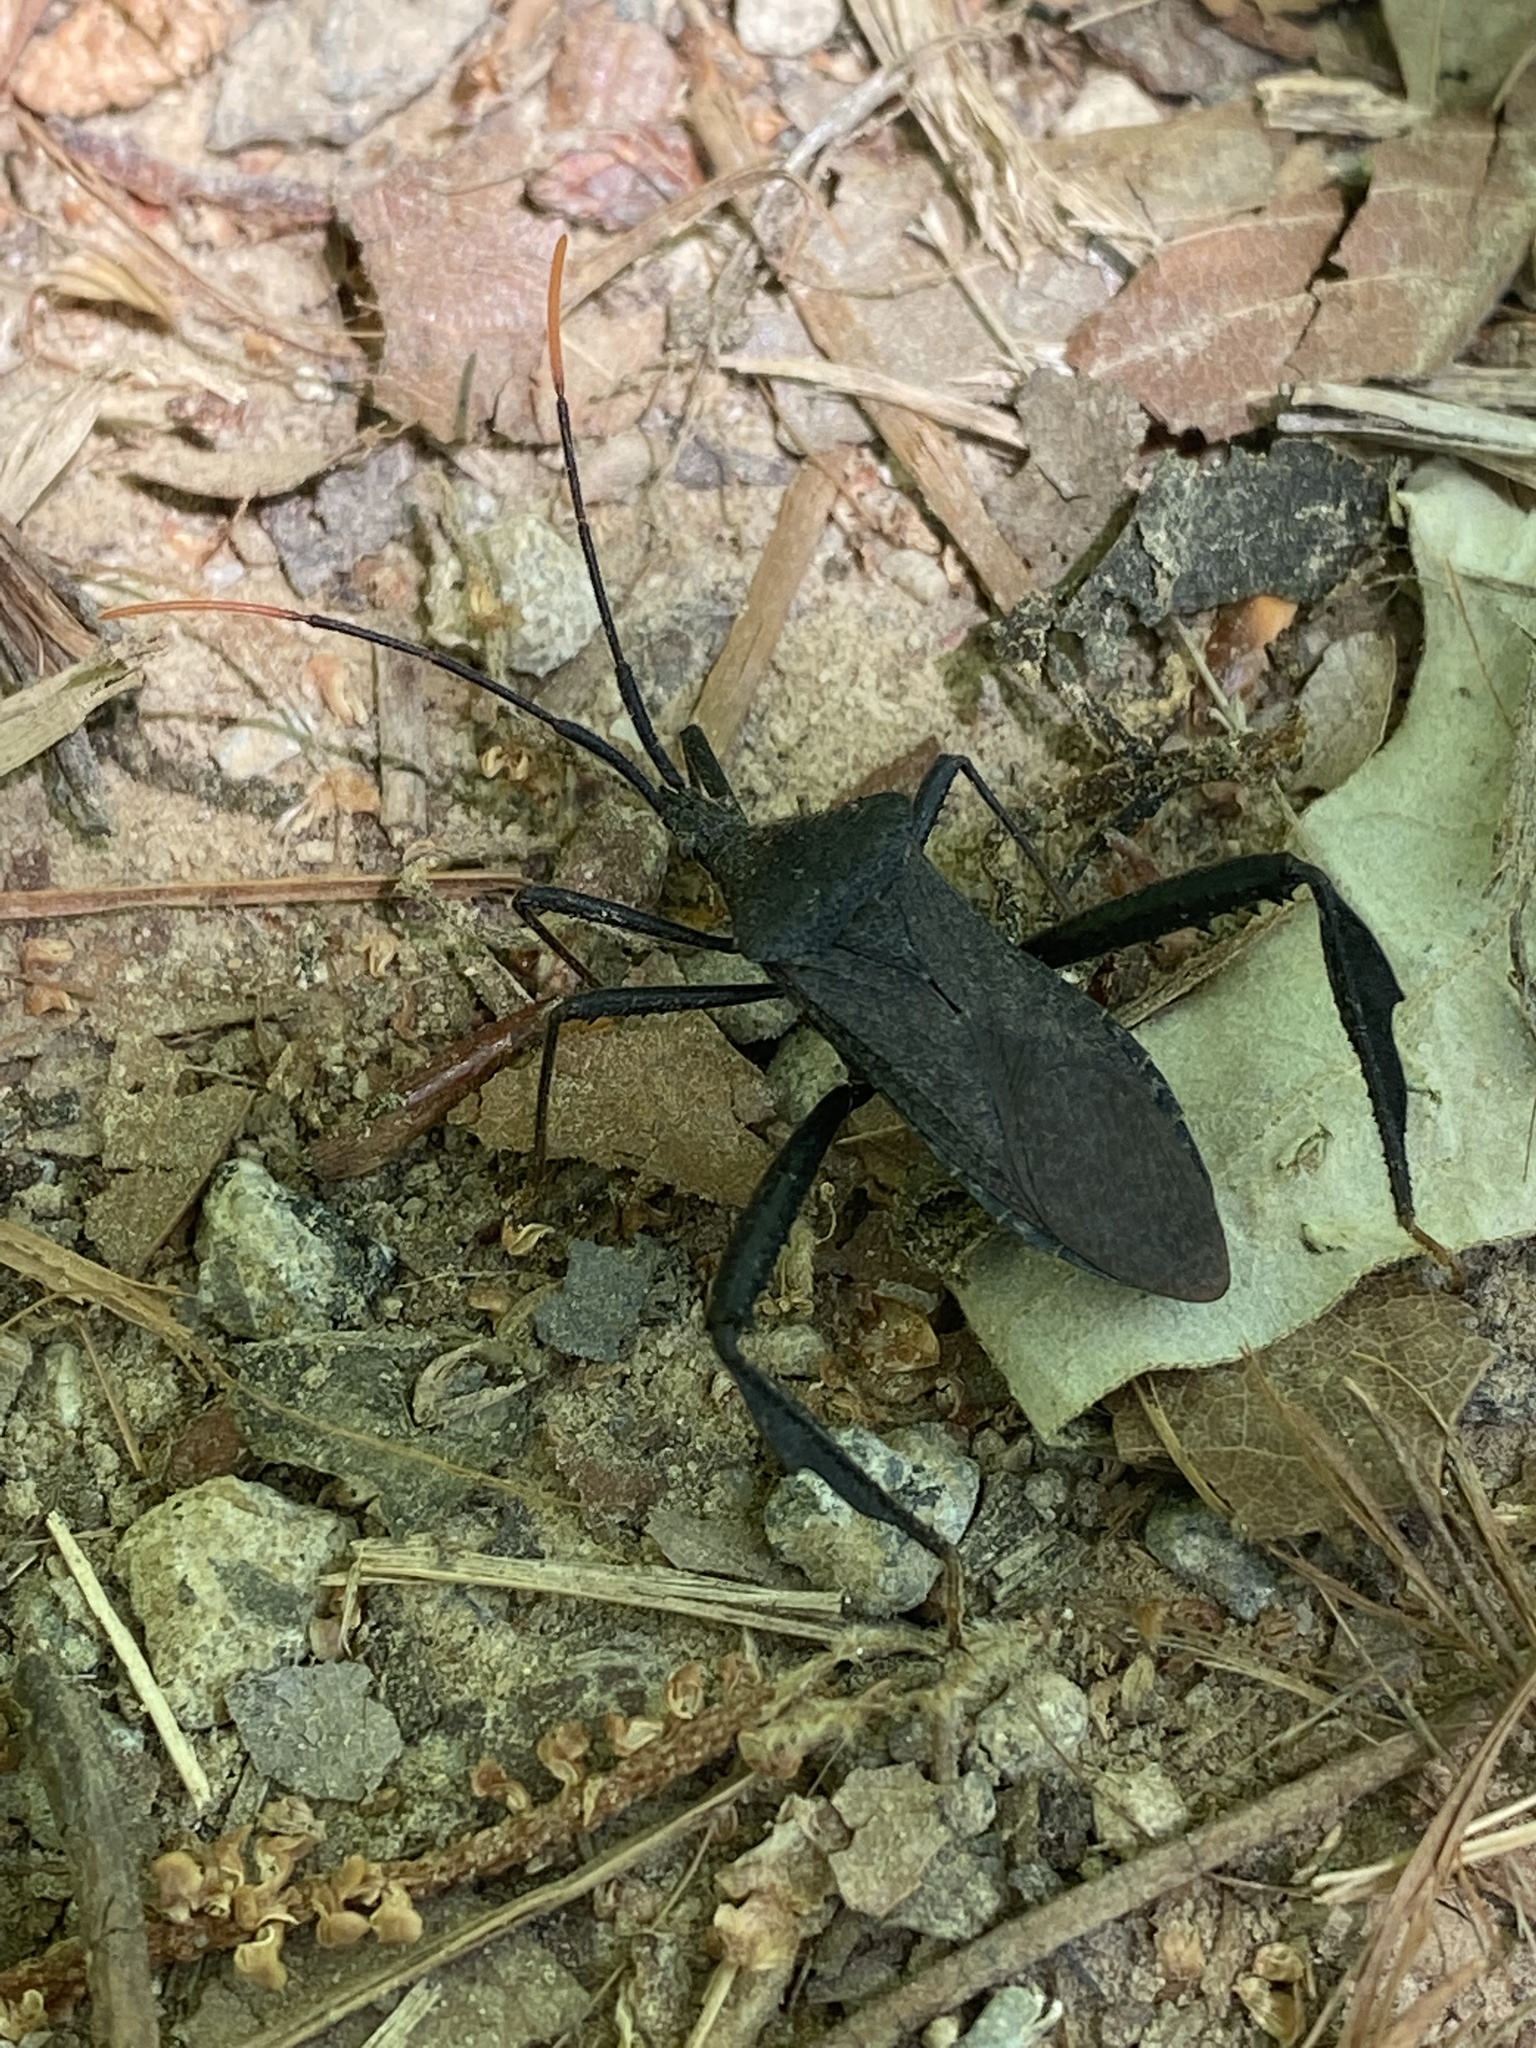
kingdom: Animalia
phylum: Arthropoda
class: Insecta
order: Hemiptera
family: Coreidae
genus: Acanthocephala
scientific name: Acanthocephala terminalis
